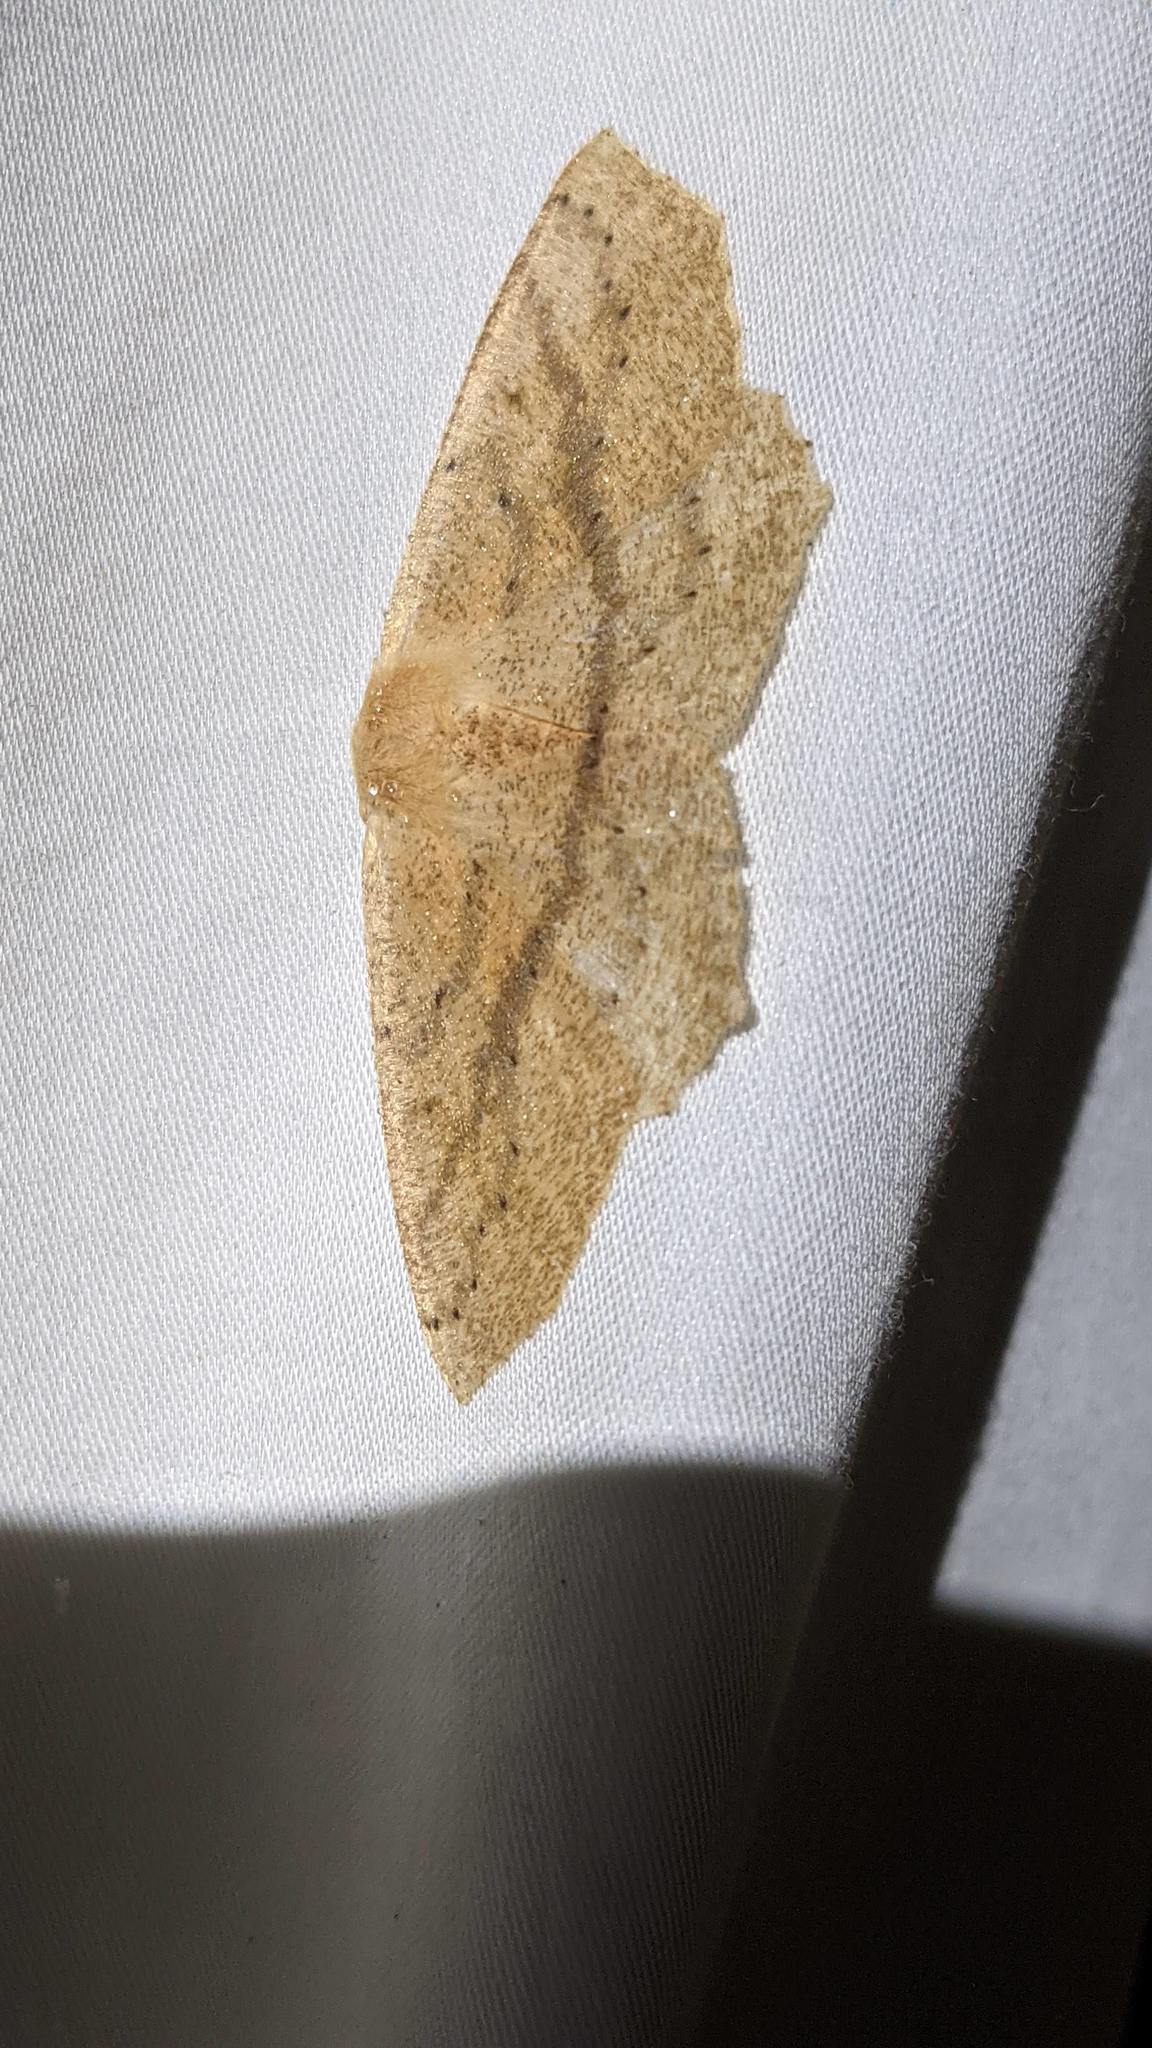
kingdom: Animalia
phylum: Arthropoda
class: Insecta
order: Lepidoptera
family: Geometridae
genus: Sabulodes
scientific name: Sabulodes aegrotata
